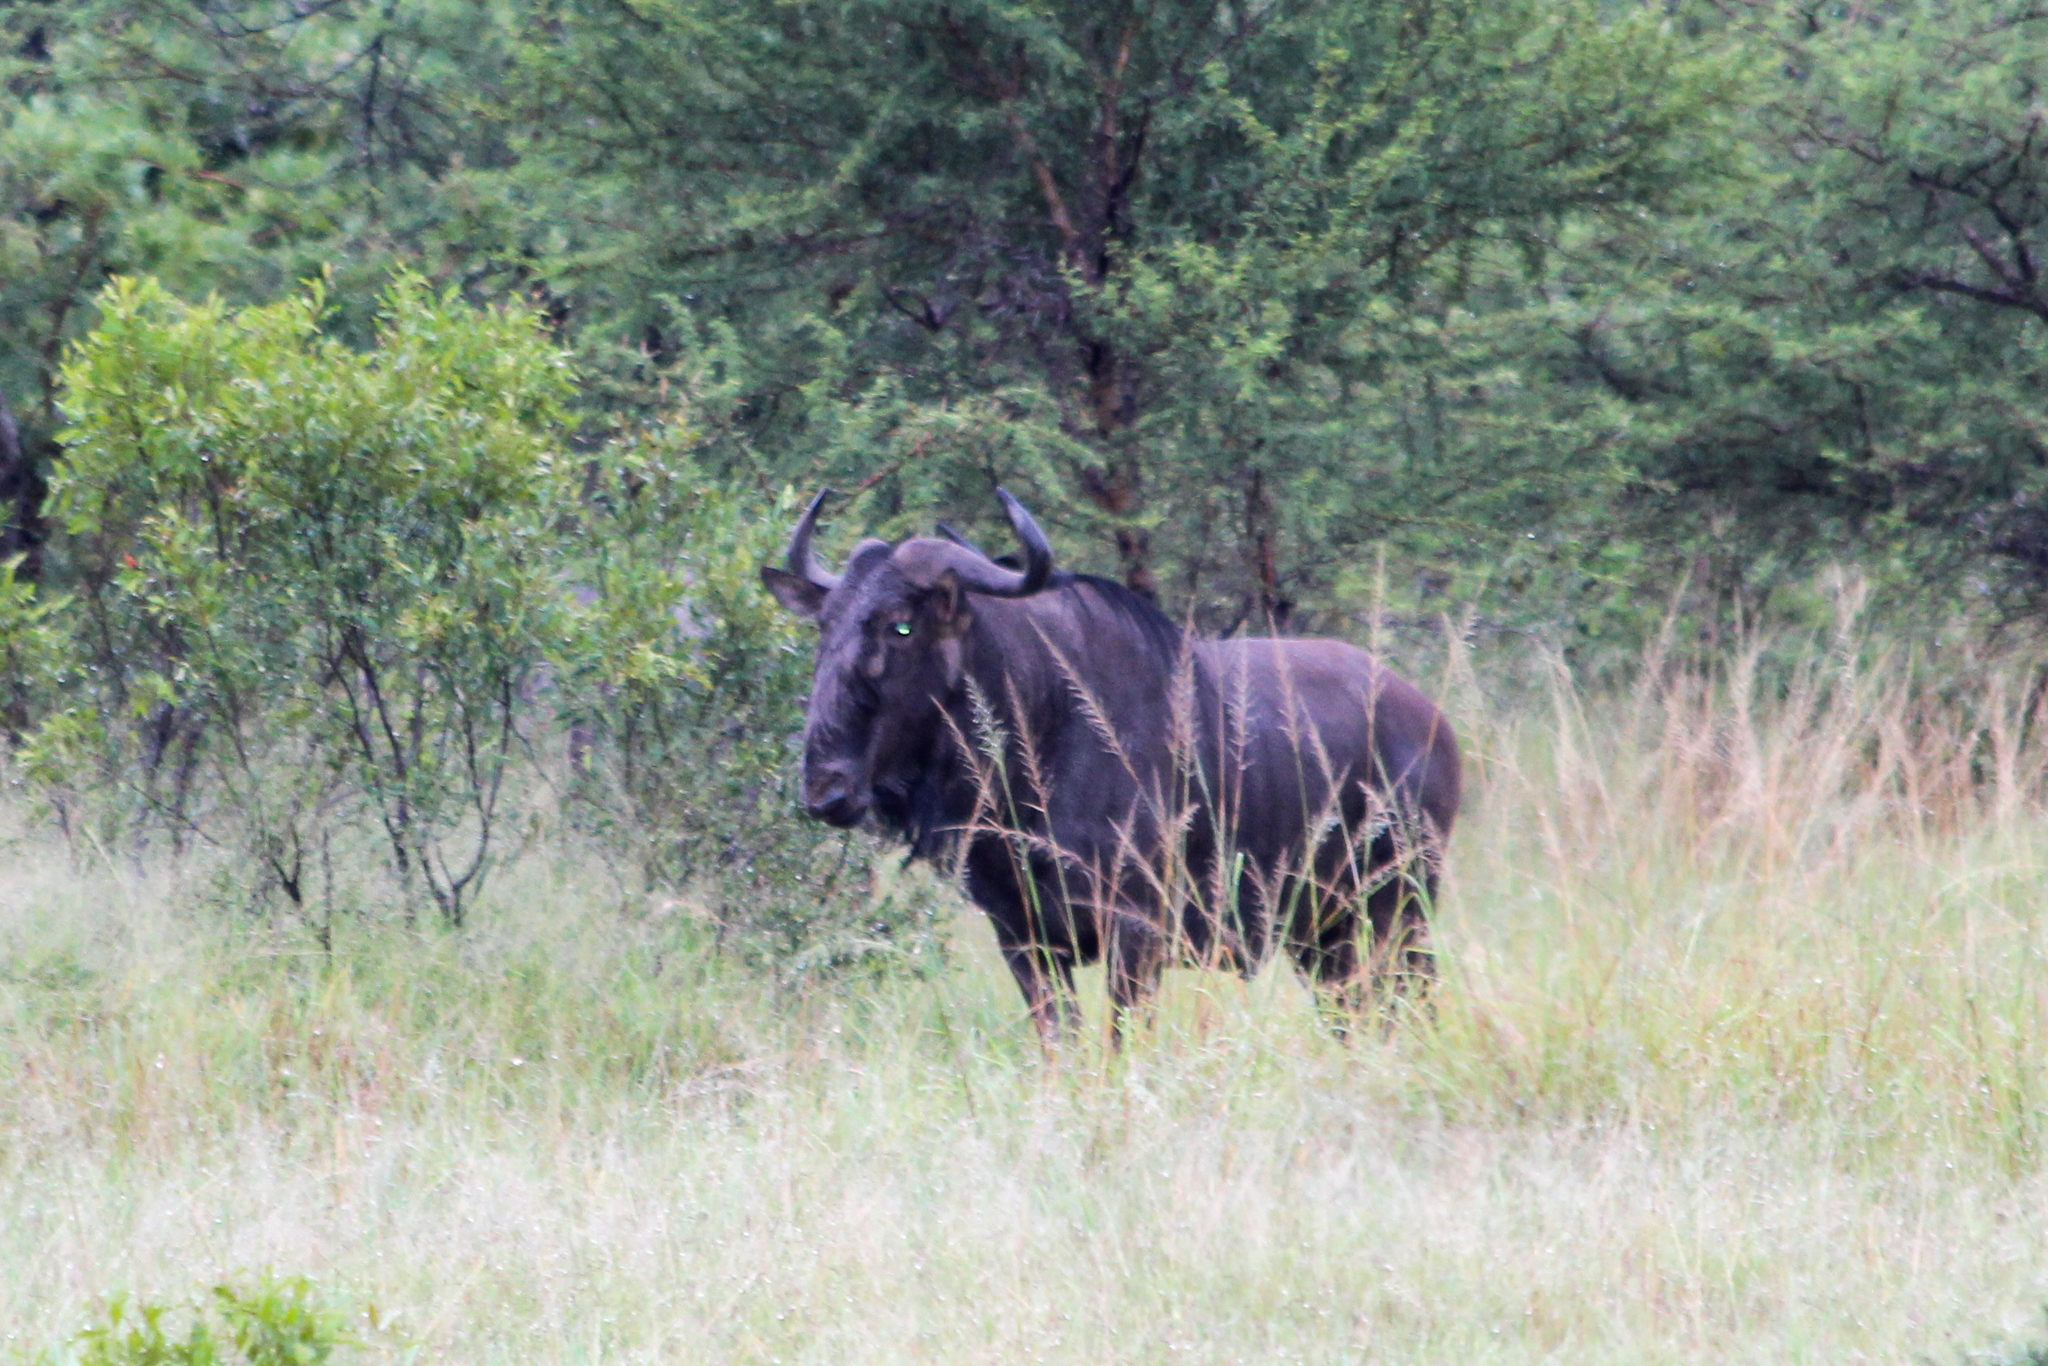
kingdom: Animalia
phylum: Chordata
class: Mammalia
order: Artiodactyla
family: Bovidae
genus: Connochaetes
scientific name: Connochaetes taurinus
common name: Blue wildebeest
